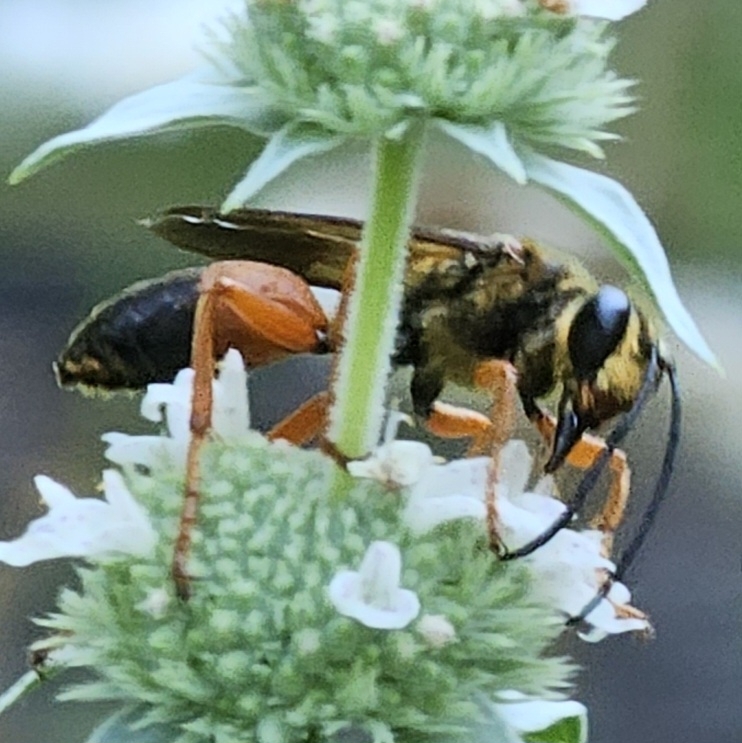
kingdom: Animalia
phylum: Arthropoda
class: Insecta
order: Hymenoptera
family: Sphecidae
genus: Sphex
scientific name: Sphex ichneumoneus
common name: Great golden digger wasp
